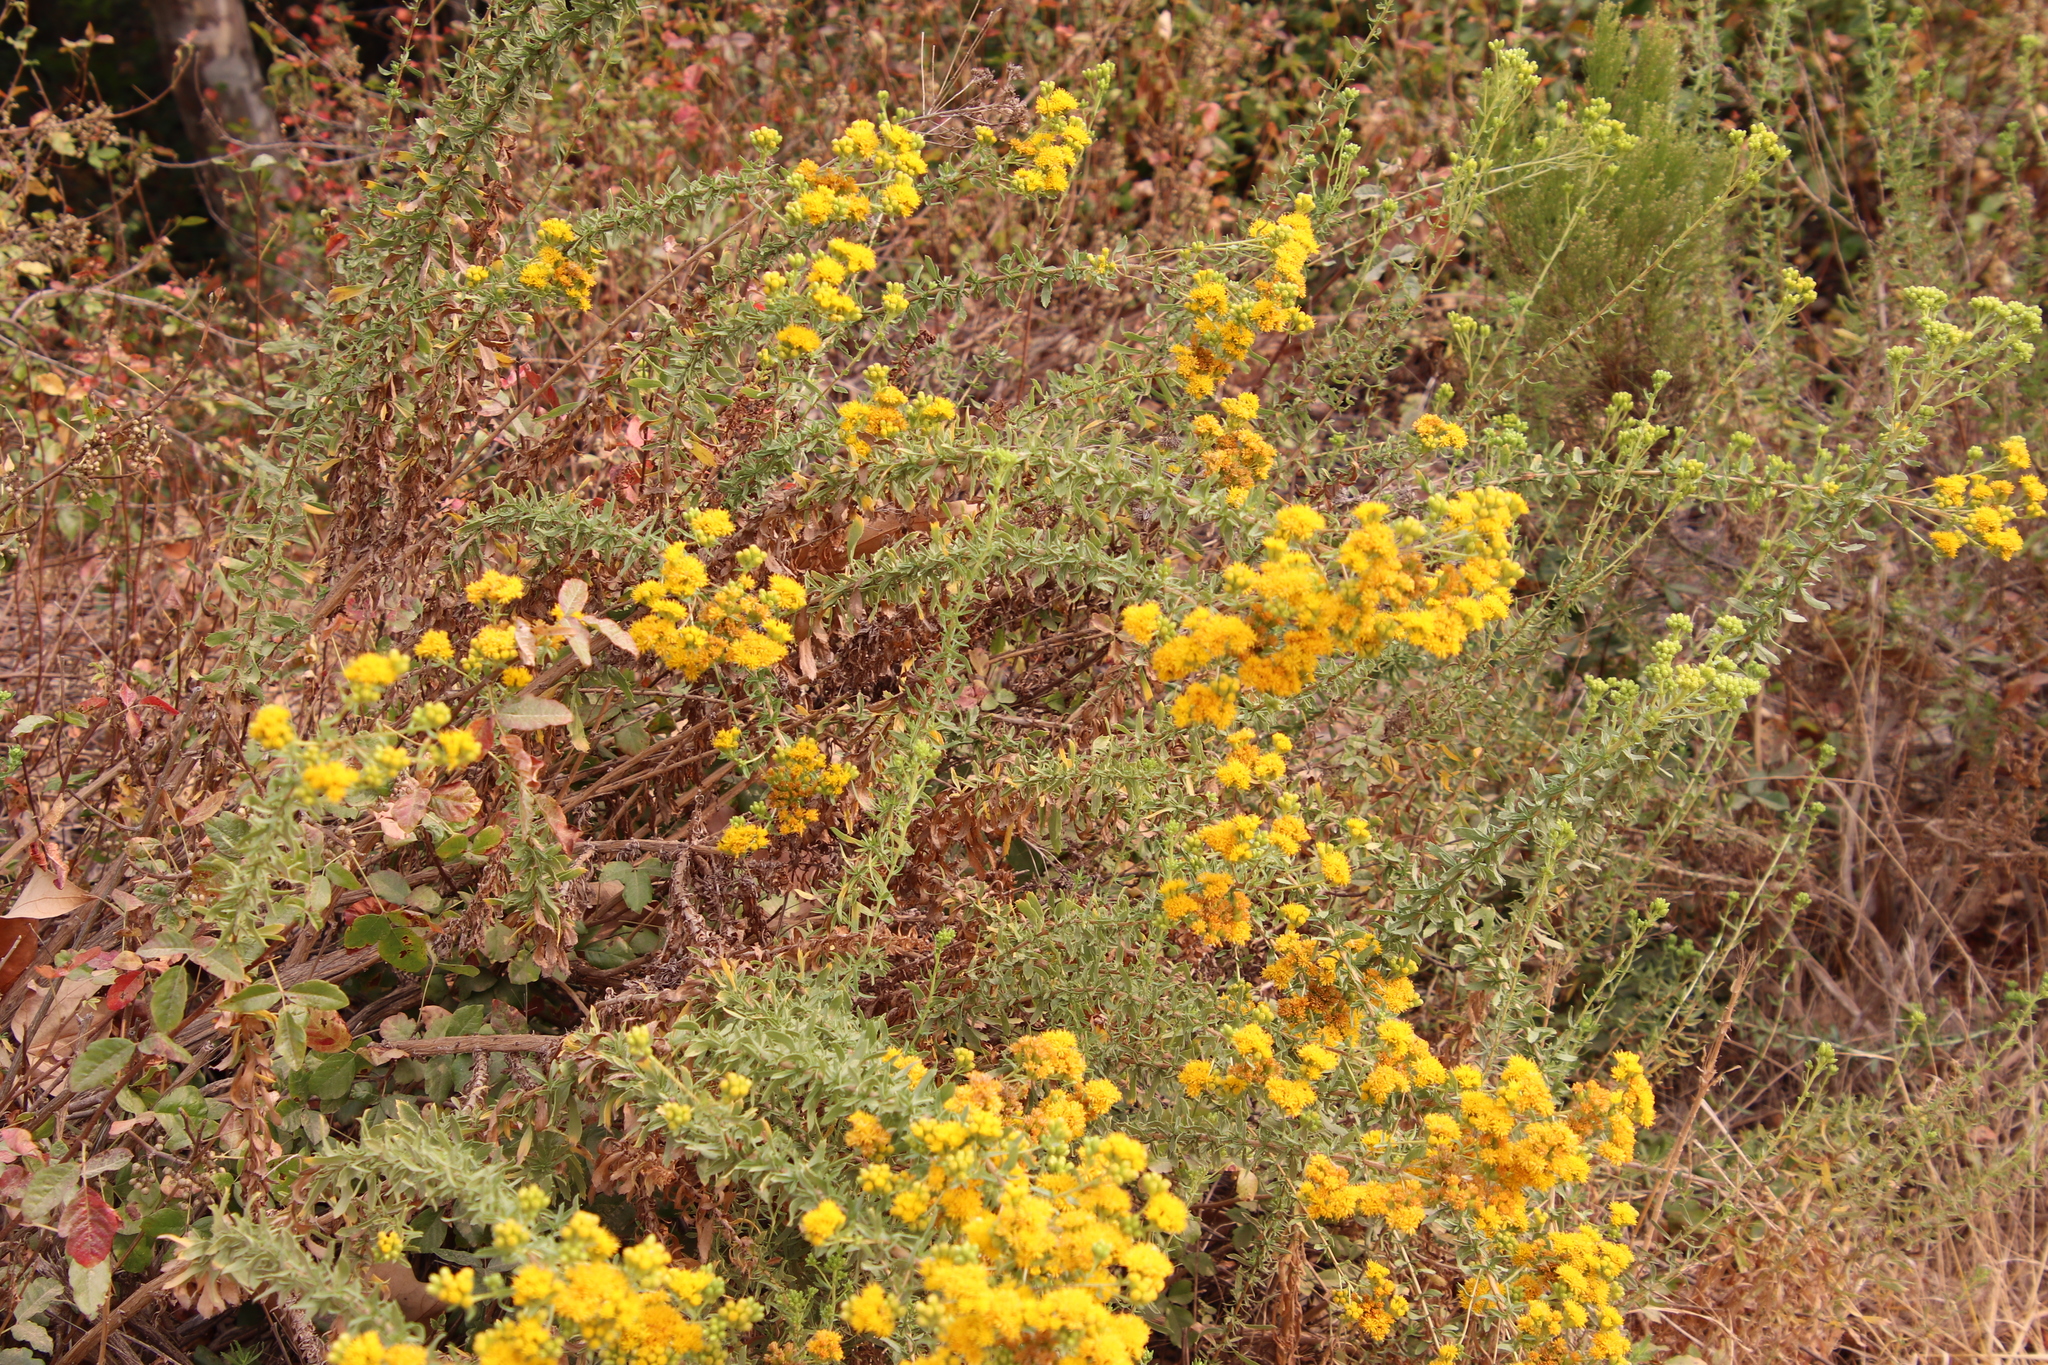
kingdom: Plantae
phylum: Tracheophyta
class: Magnoliopsida
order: Asterales
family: Asteraceae
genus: Isocoma
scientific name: Isocoma menziesii
